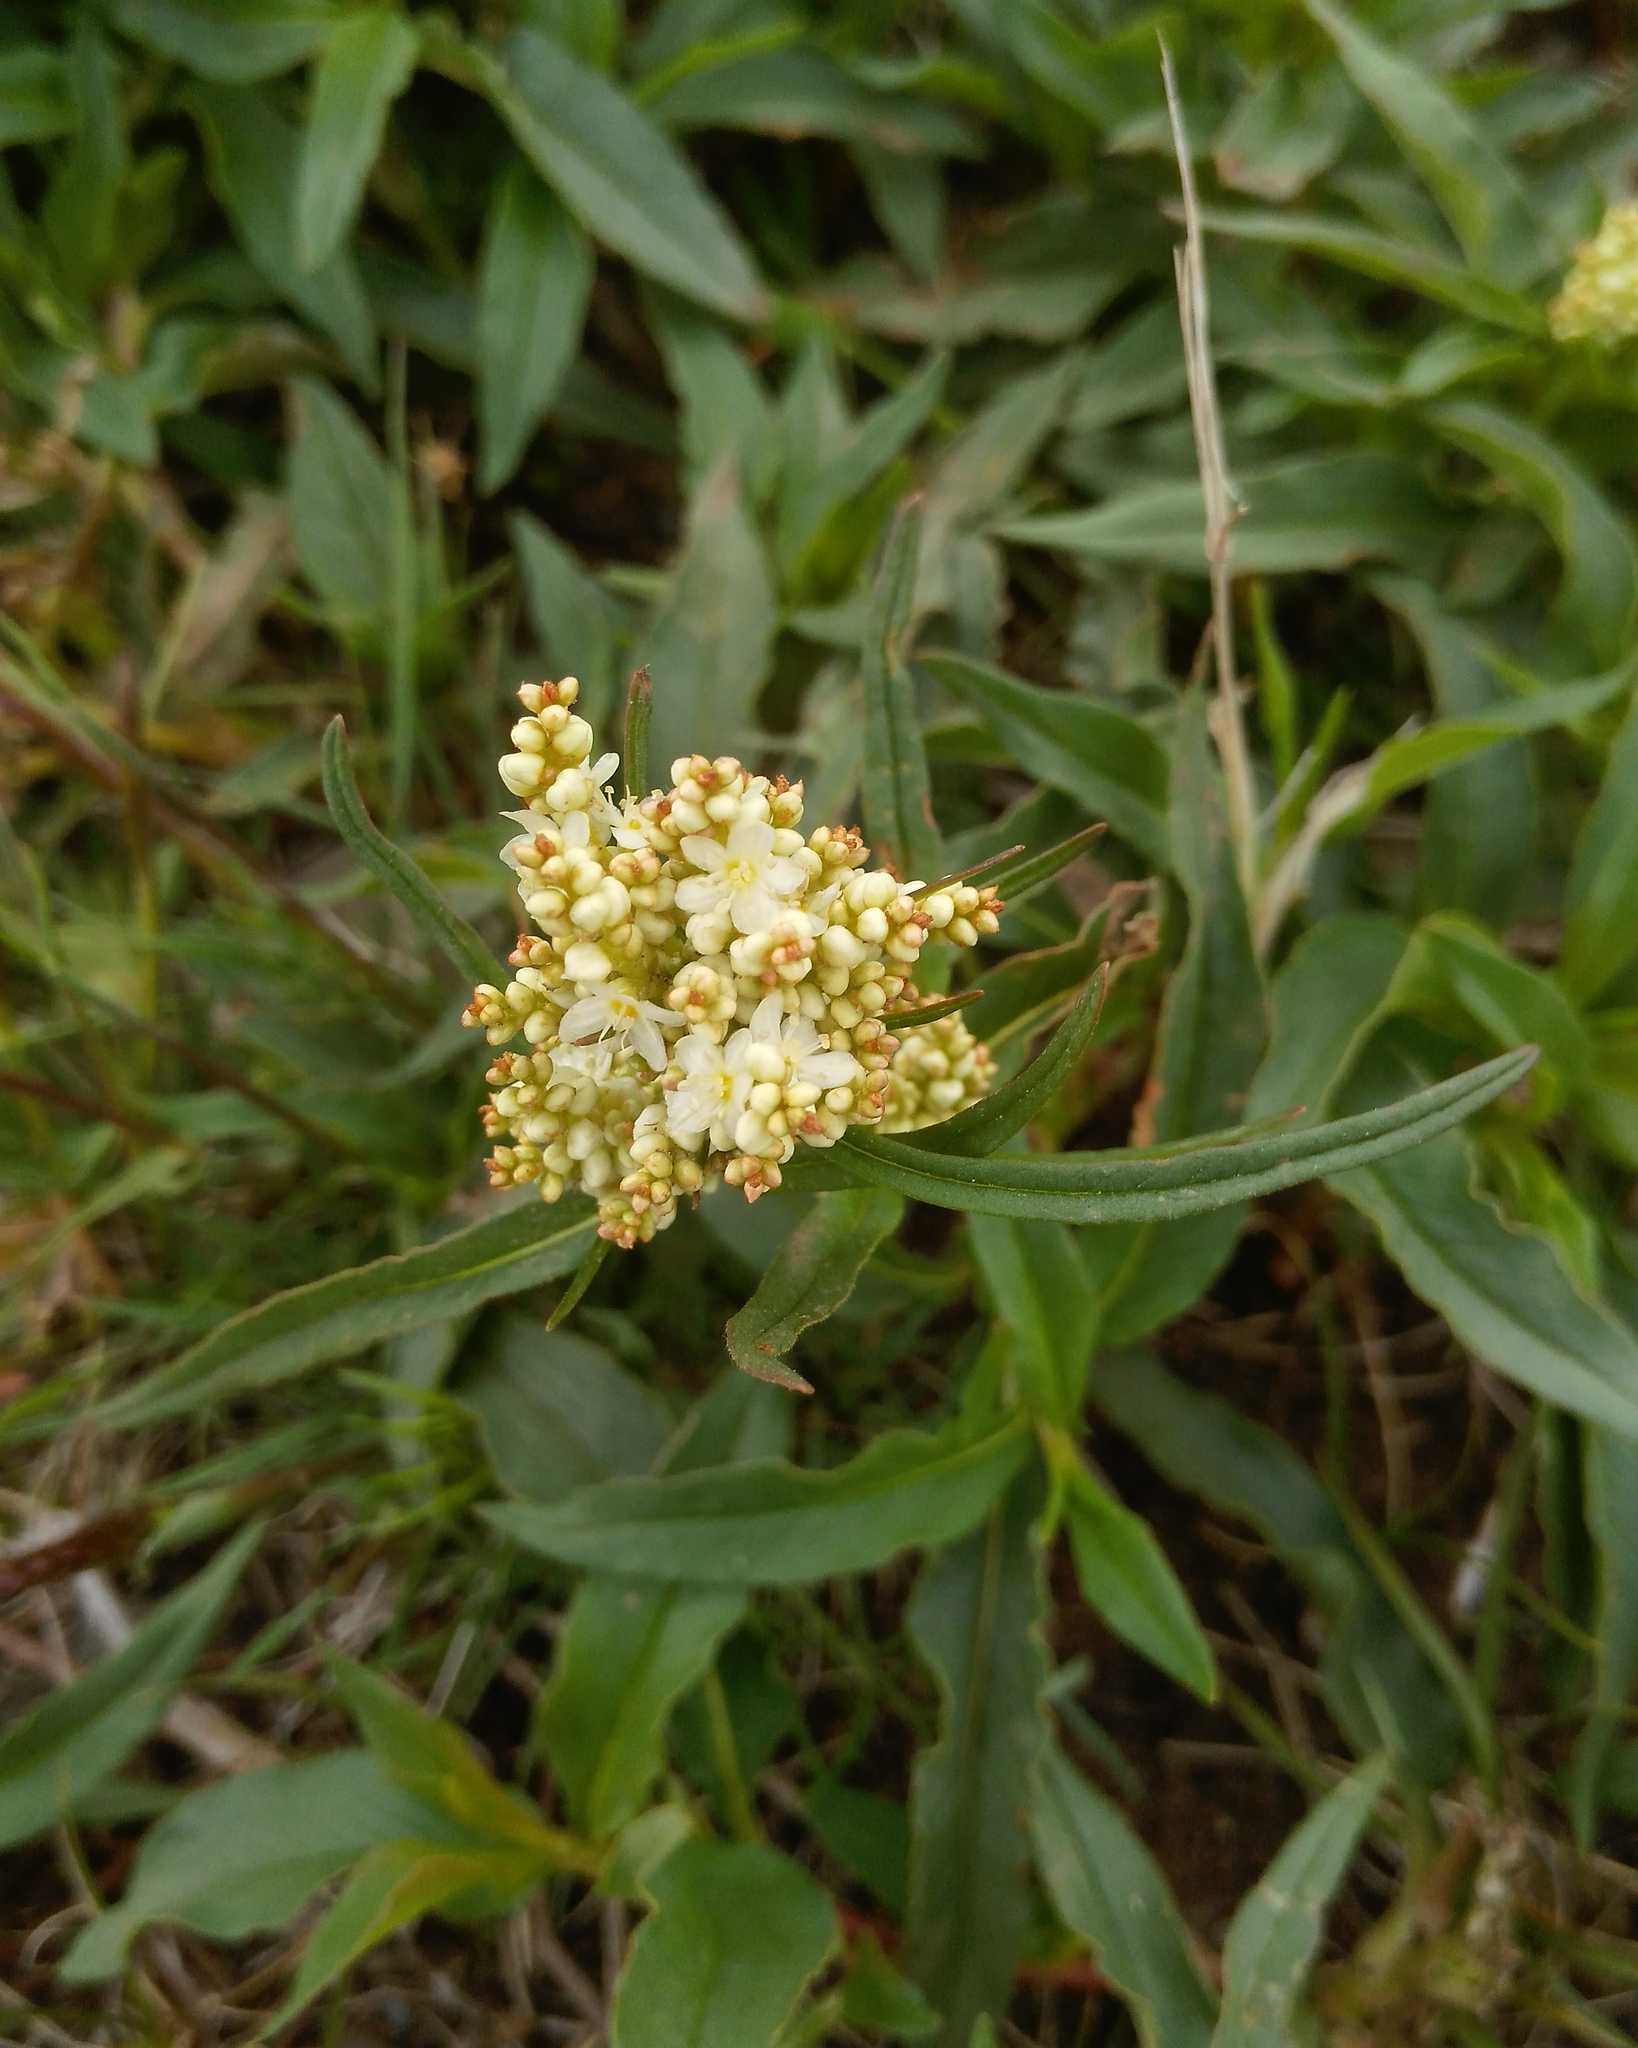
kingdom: Plantae
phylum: Tracheophyta
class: Magnoliopsida
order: Caryophyllales
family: Polygonaceae
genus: Koenigia
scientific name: Koenigia alpina
